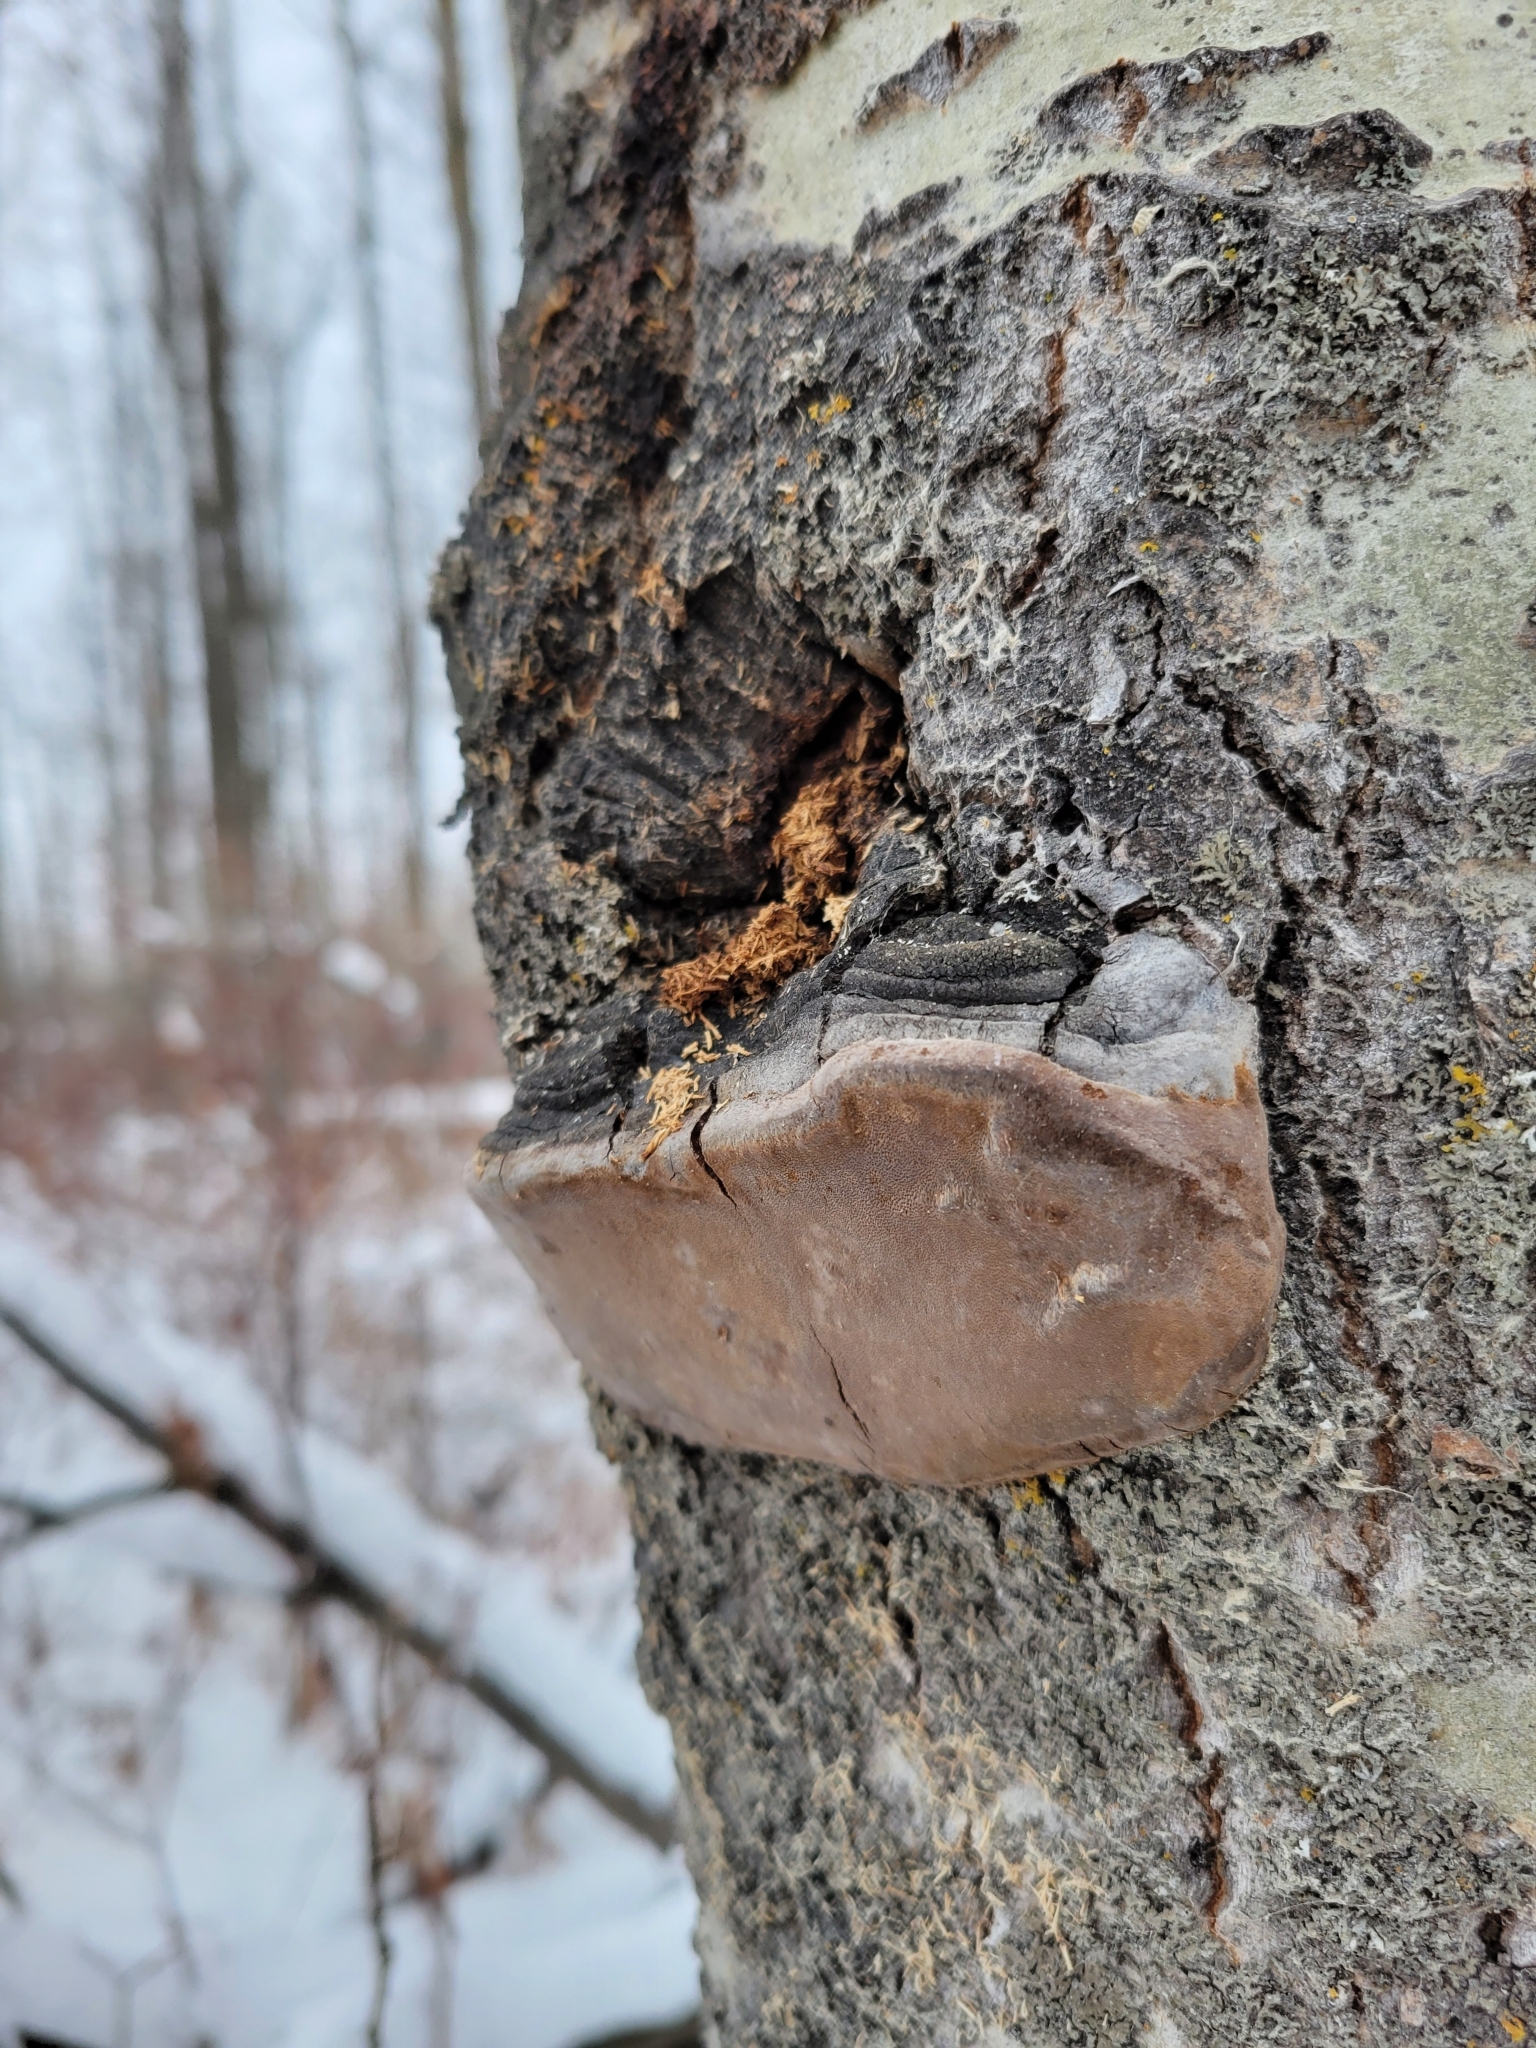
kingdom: Fungi
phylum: Basidiomycota
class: Agaricomycetes
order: Hymenochaetales
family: Hymenochaetaceae
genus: Phellinus
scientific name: Phellinus tremulae
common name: Aspen bracket
